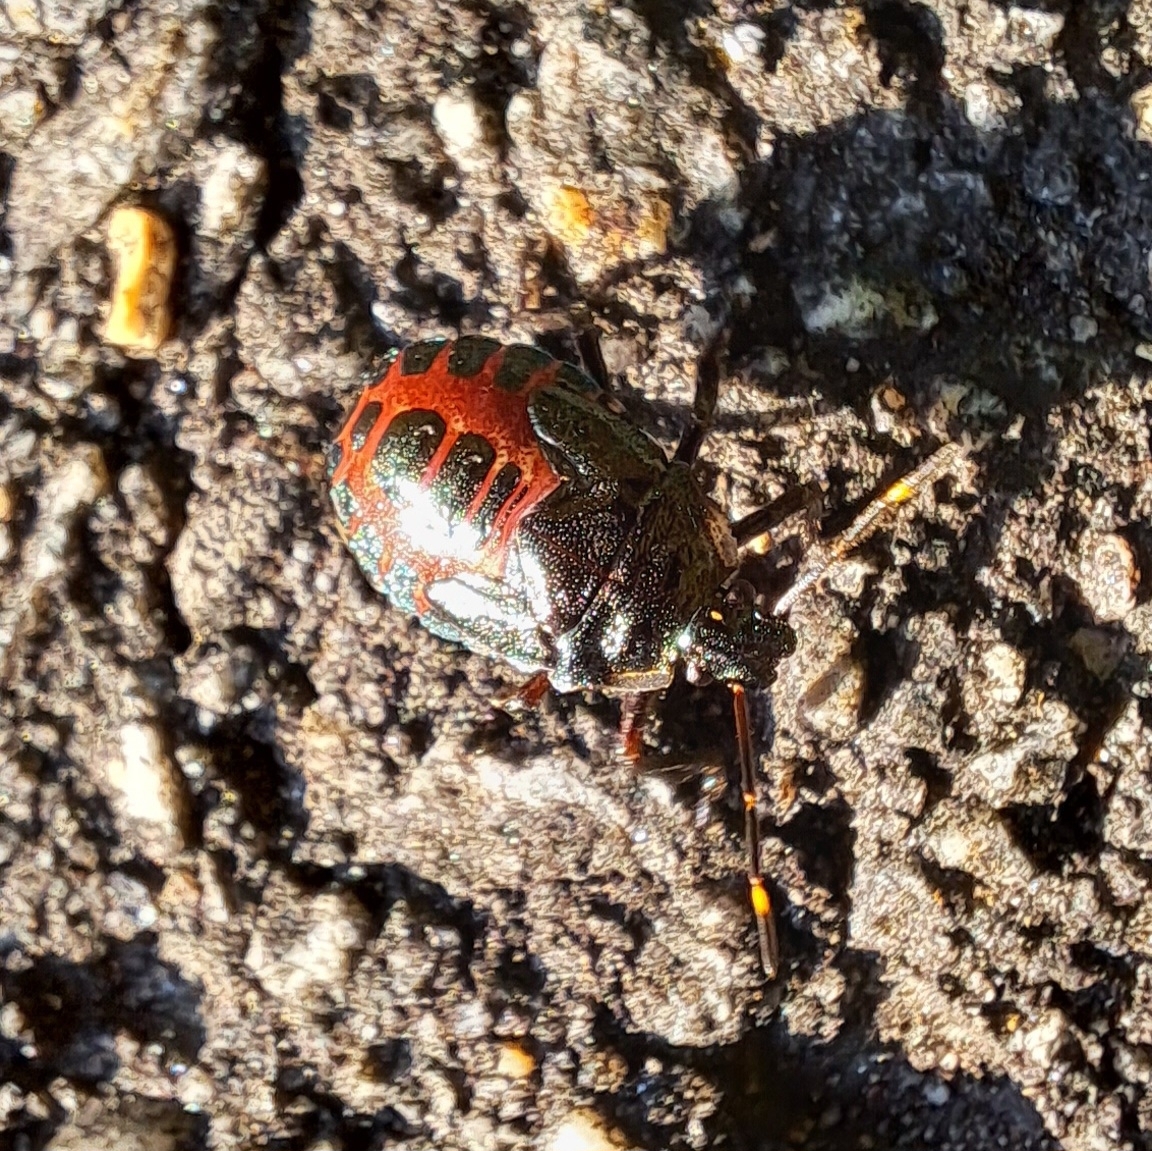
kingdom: Animalia
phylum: Arthropoda
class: Insecta
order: Hemiptera
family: Pentatomidae
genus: Pinthaeus
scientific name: Pinthaeus sanguinipes
